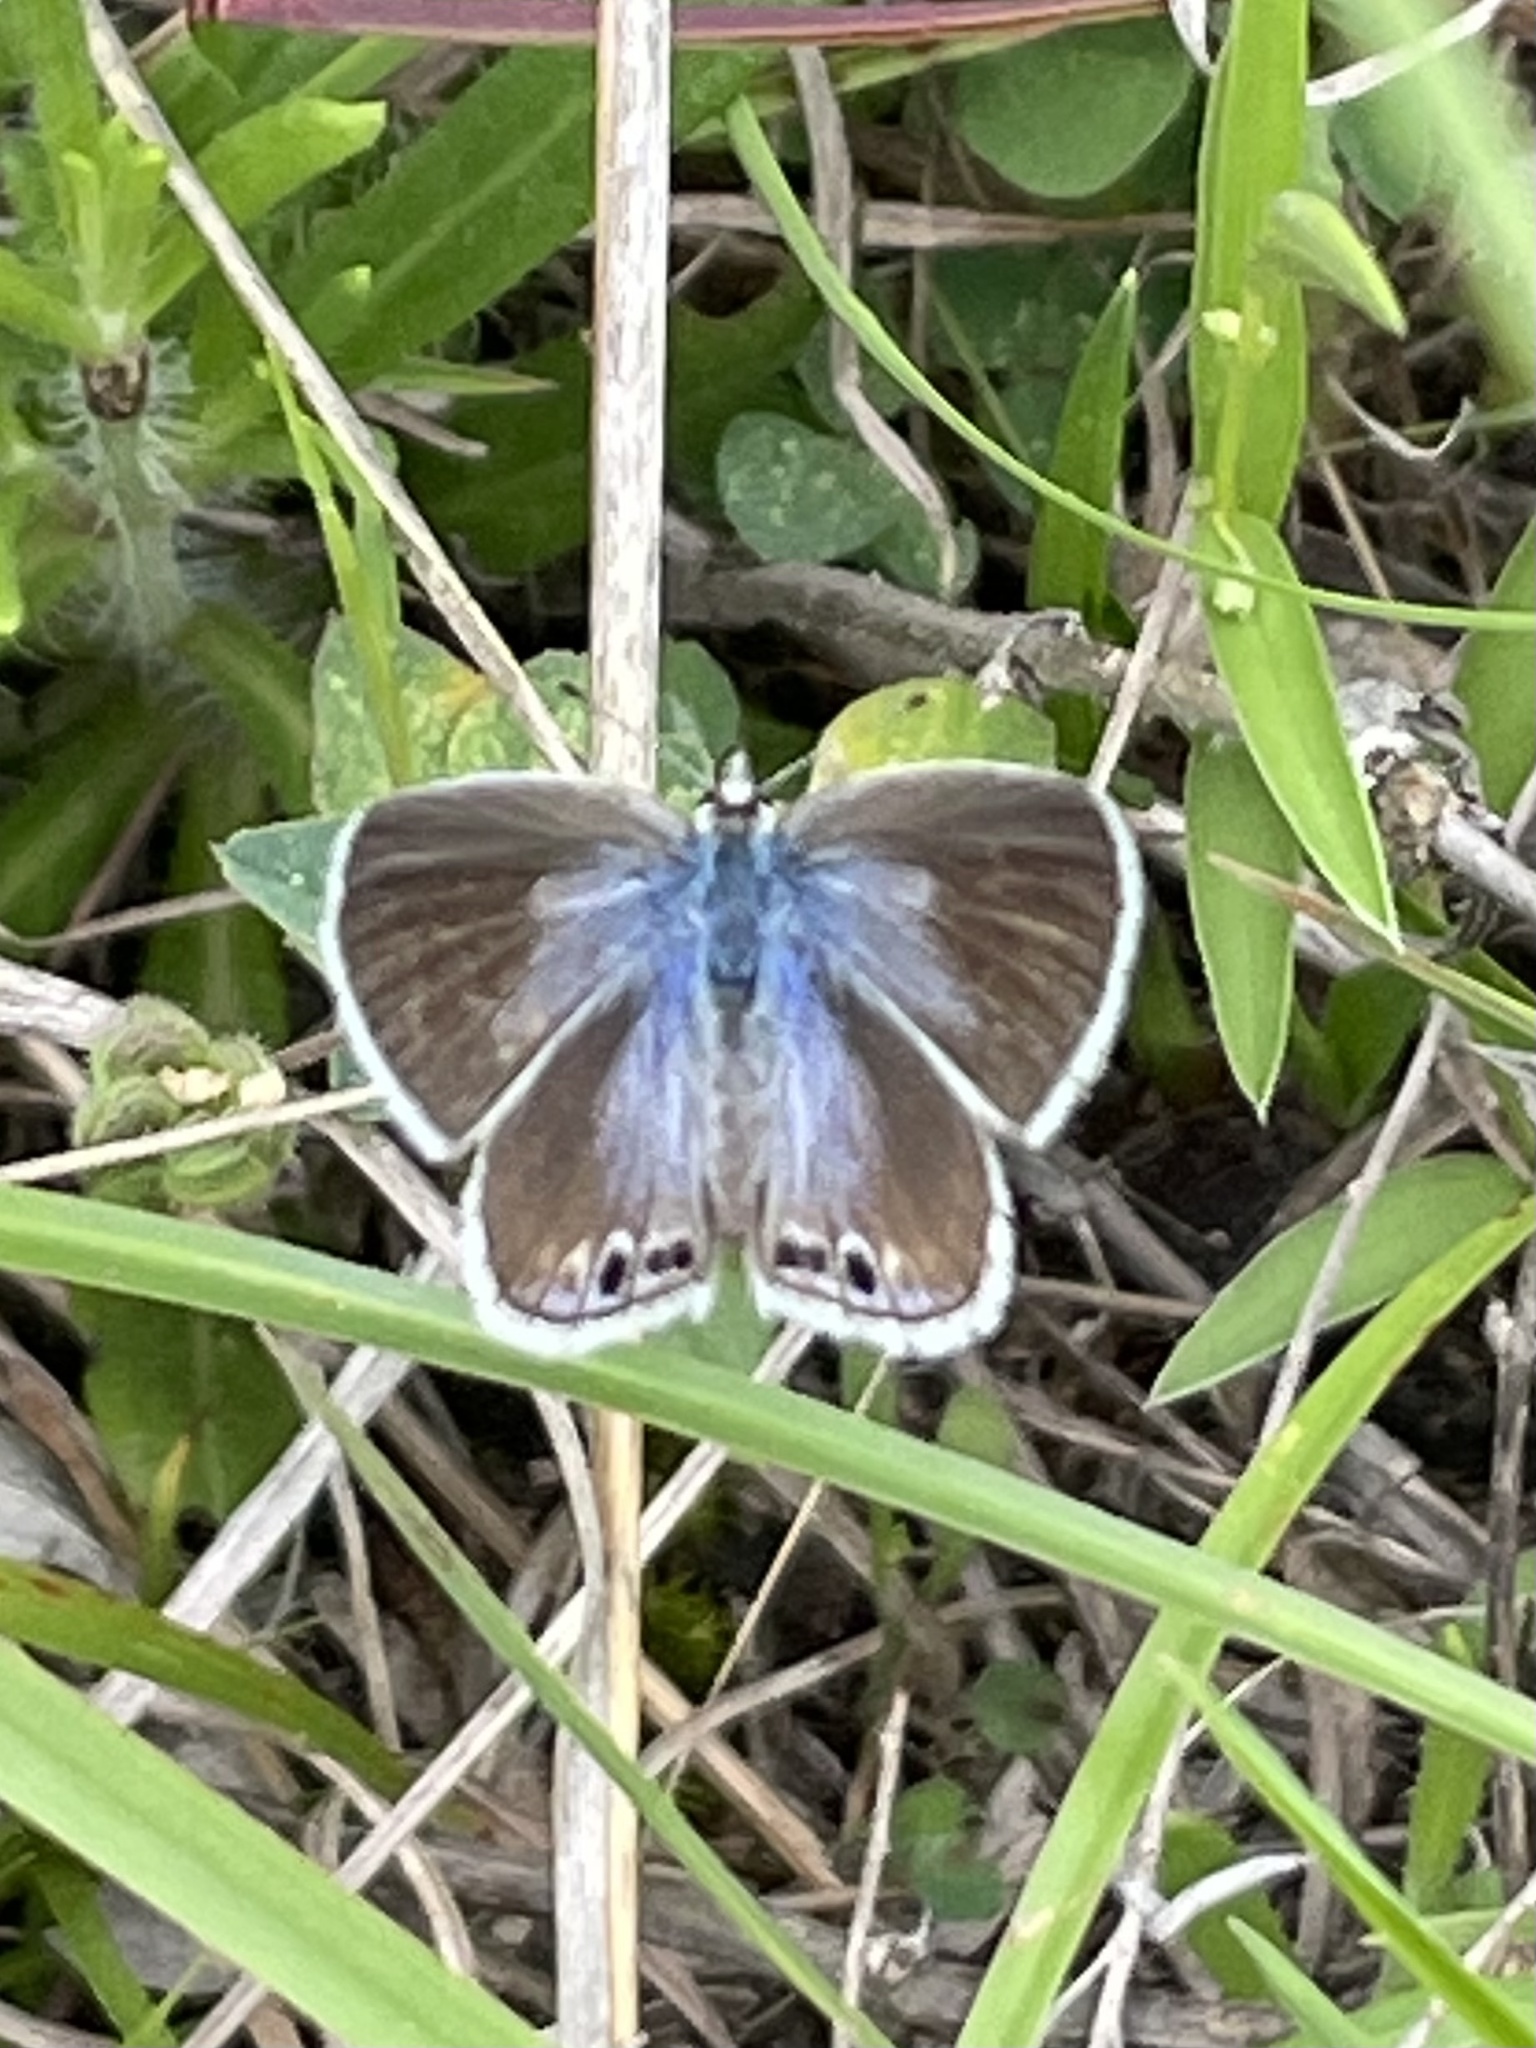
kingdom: Animalia
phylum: Arthropoda
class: Insecta
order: Lepidoptera
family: Lycaenidae
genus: Echinargus
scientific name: Echinargus isola
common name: Reakirt's blue
